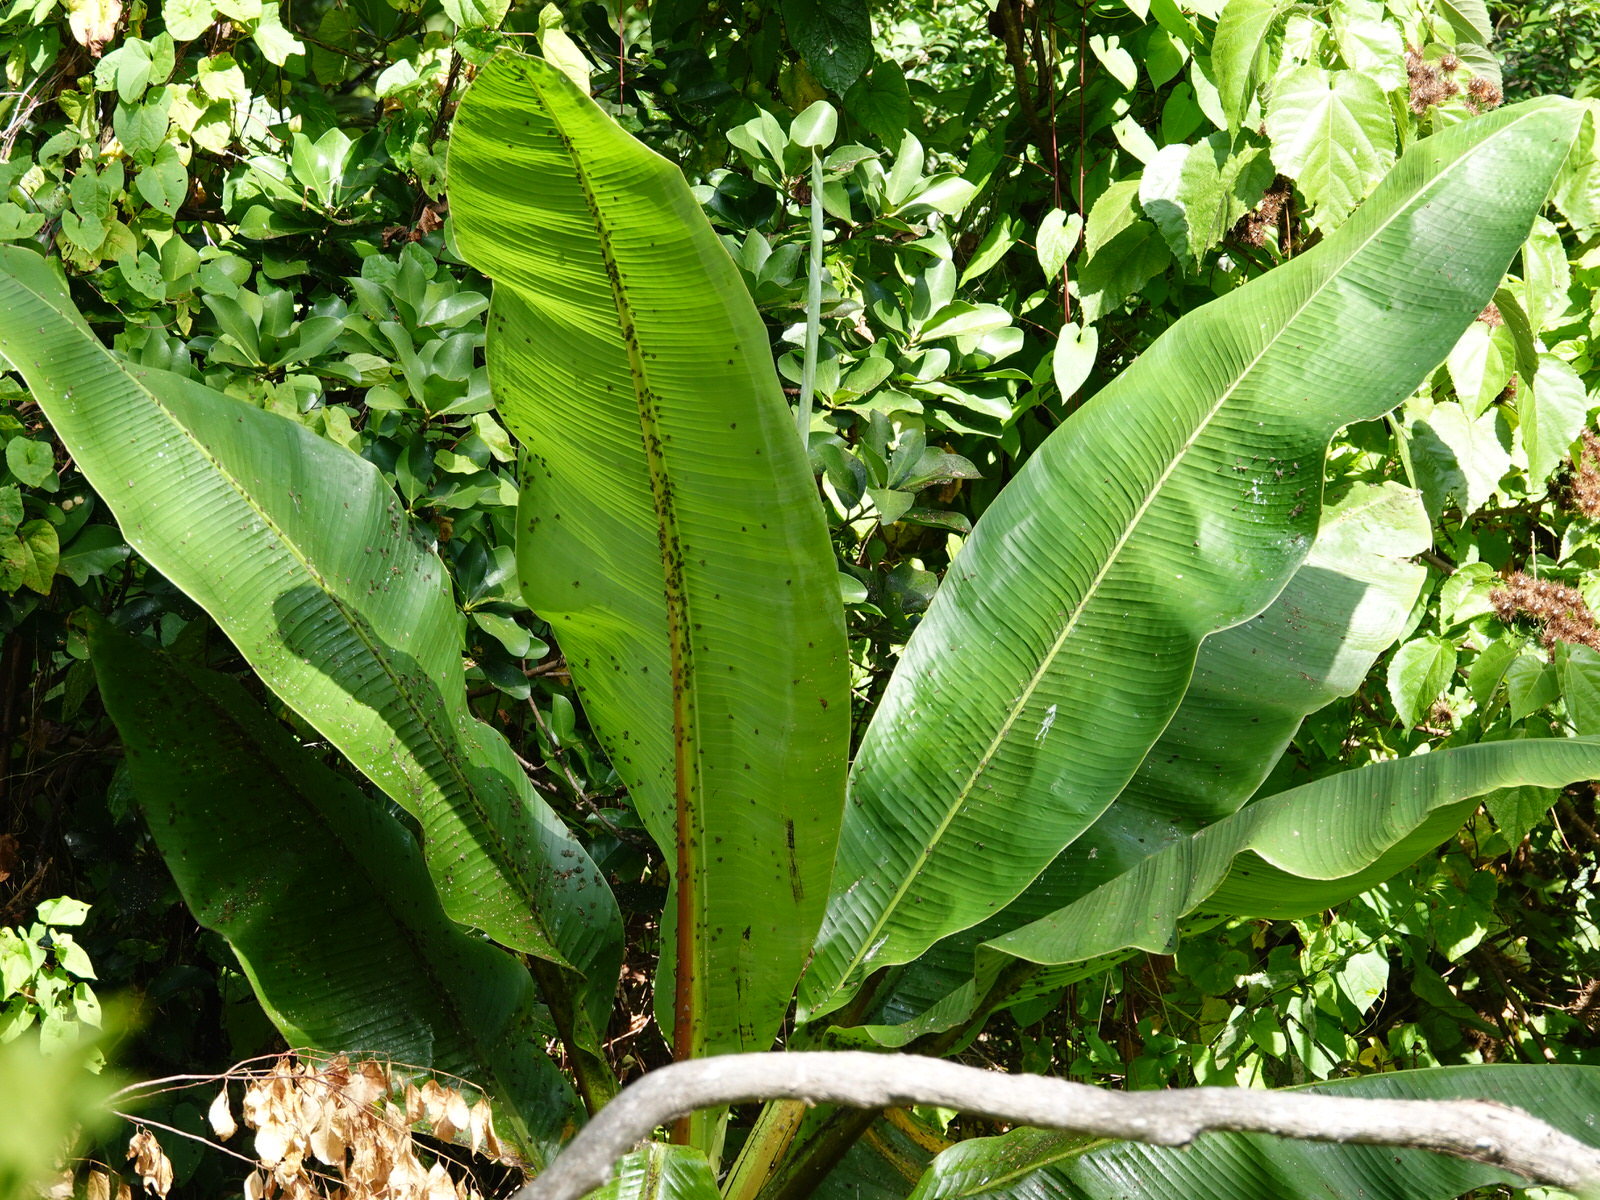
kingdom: Animalia
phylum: Arthropoda
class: Insecta
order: Hemiptera
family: Ricaniidae
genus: Scolypopa
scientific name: Scolypopa australis
